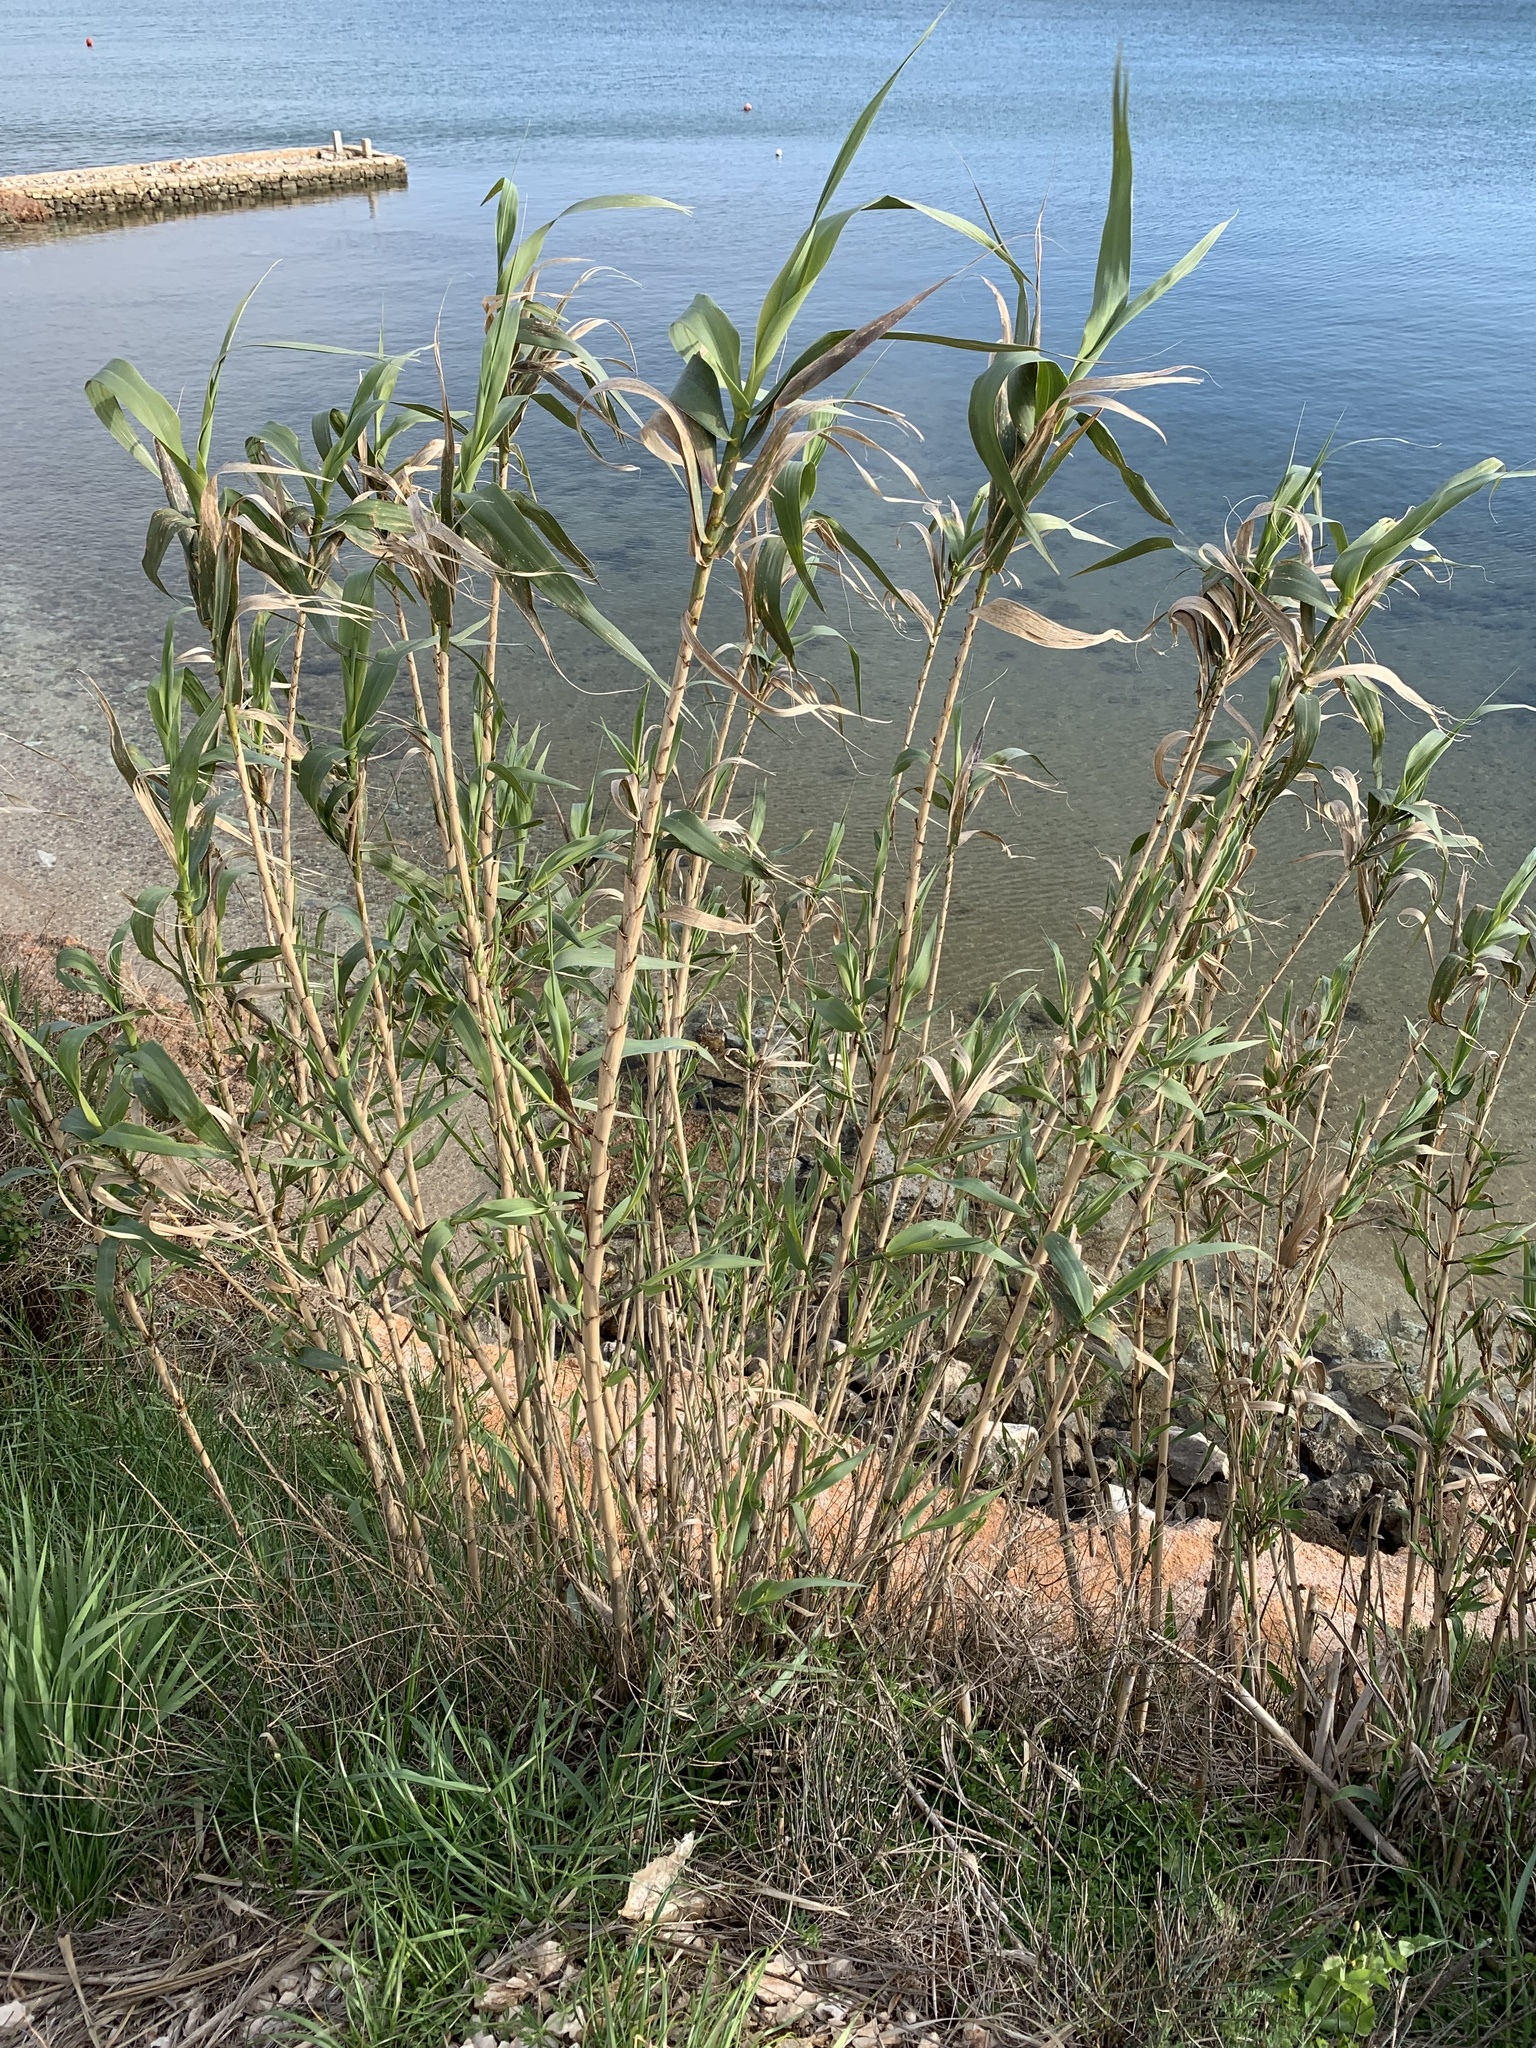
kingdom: Plantae
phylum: Tracheophyta
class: Liliopsida
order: Poales
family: Poaceae
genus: Arundo
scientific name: Arundo donax
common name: Giant reed
